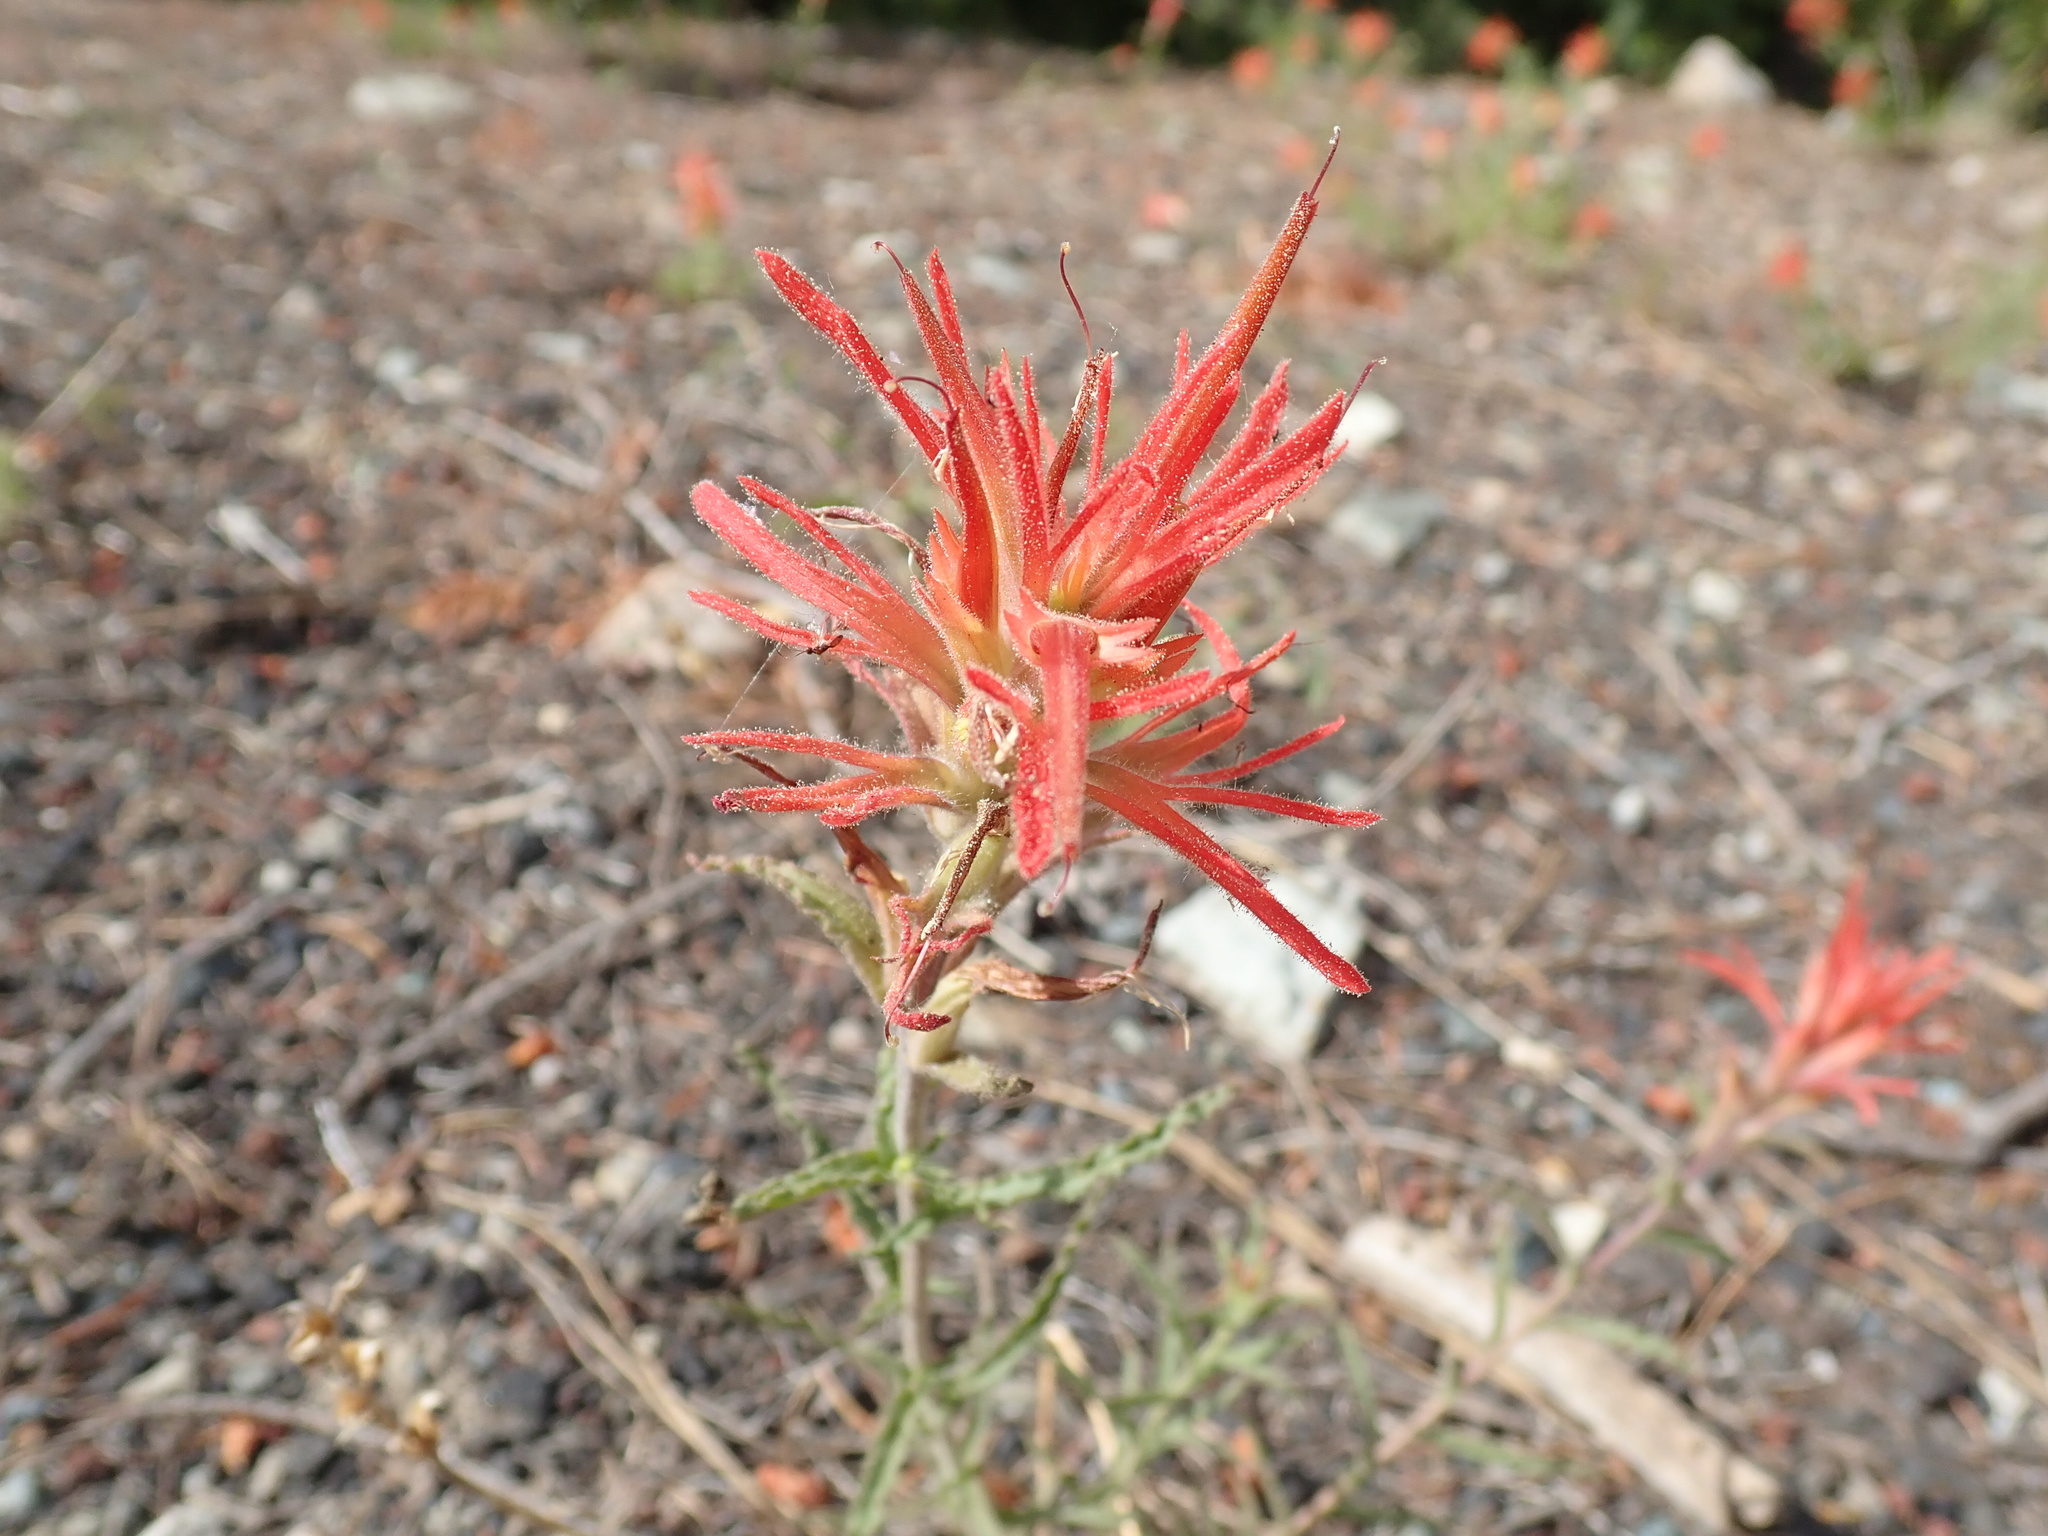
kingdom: Plantae
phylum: Tracheophyta
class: Magnoliopsida
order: Lamiales
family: Orobanchaceae
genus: Castilleja
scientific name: Castilleja applegatei
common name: Wavy-leaf paintbrush
